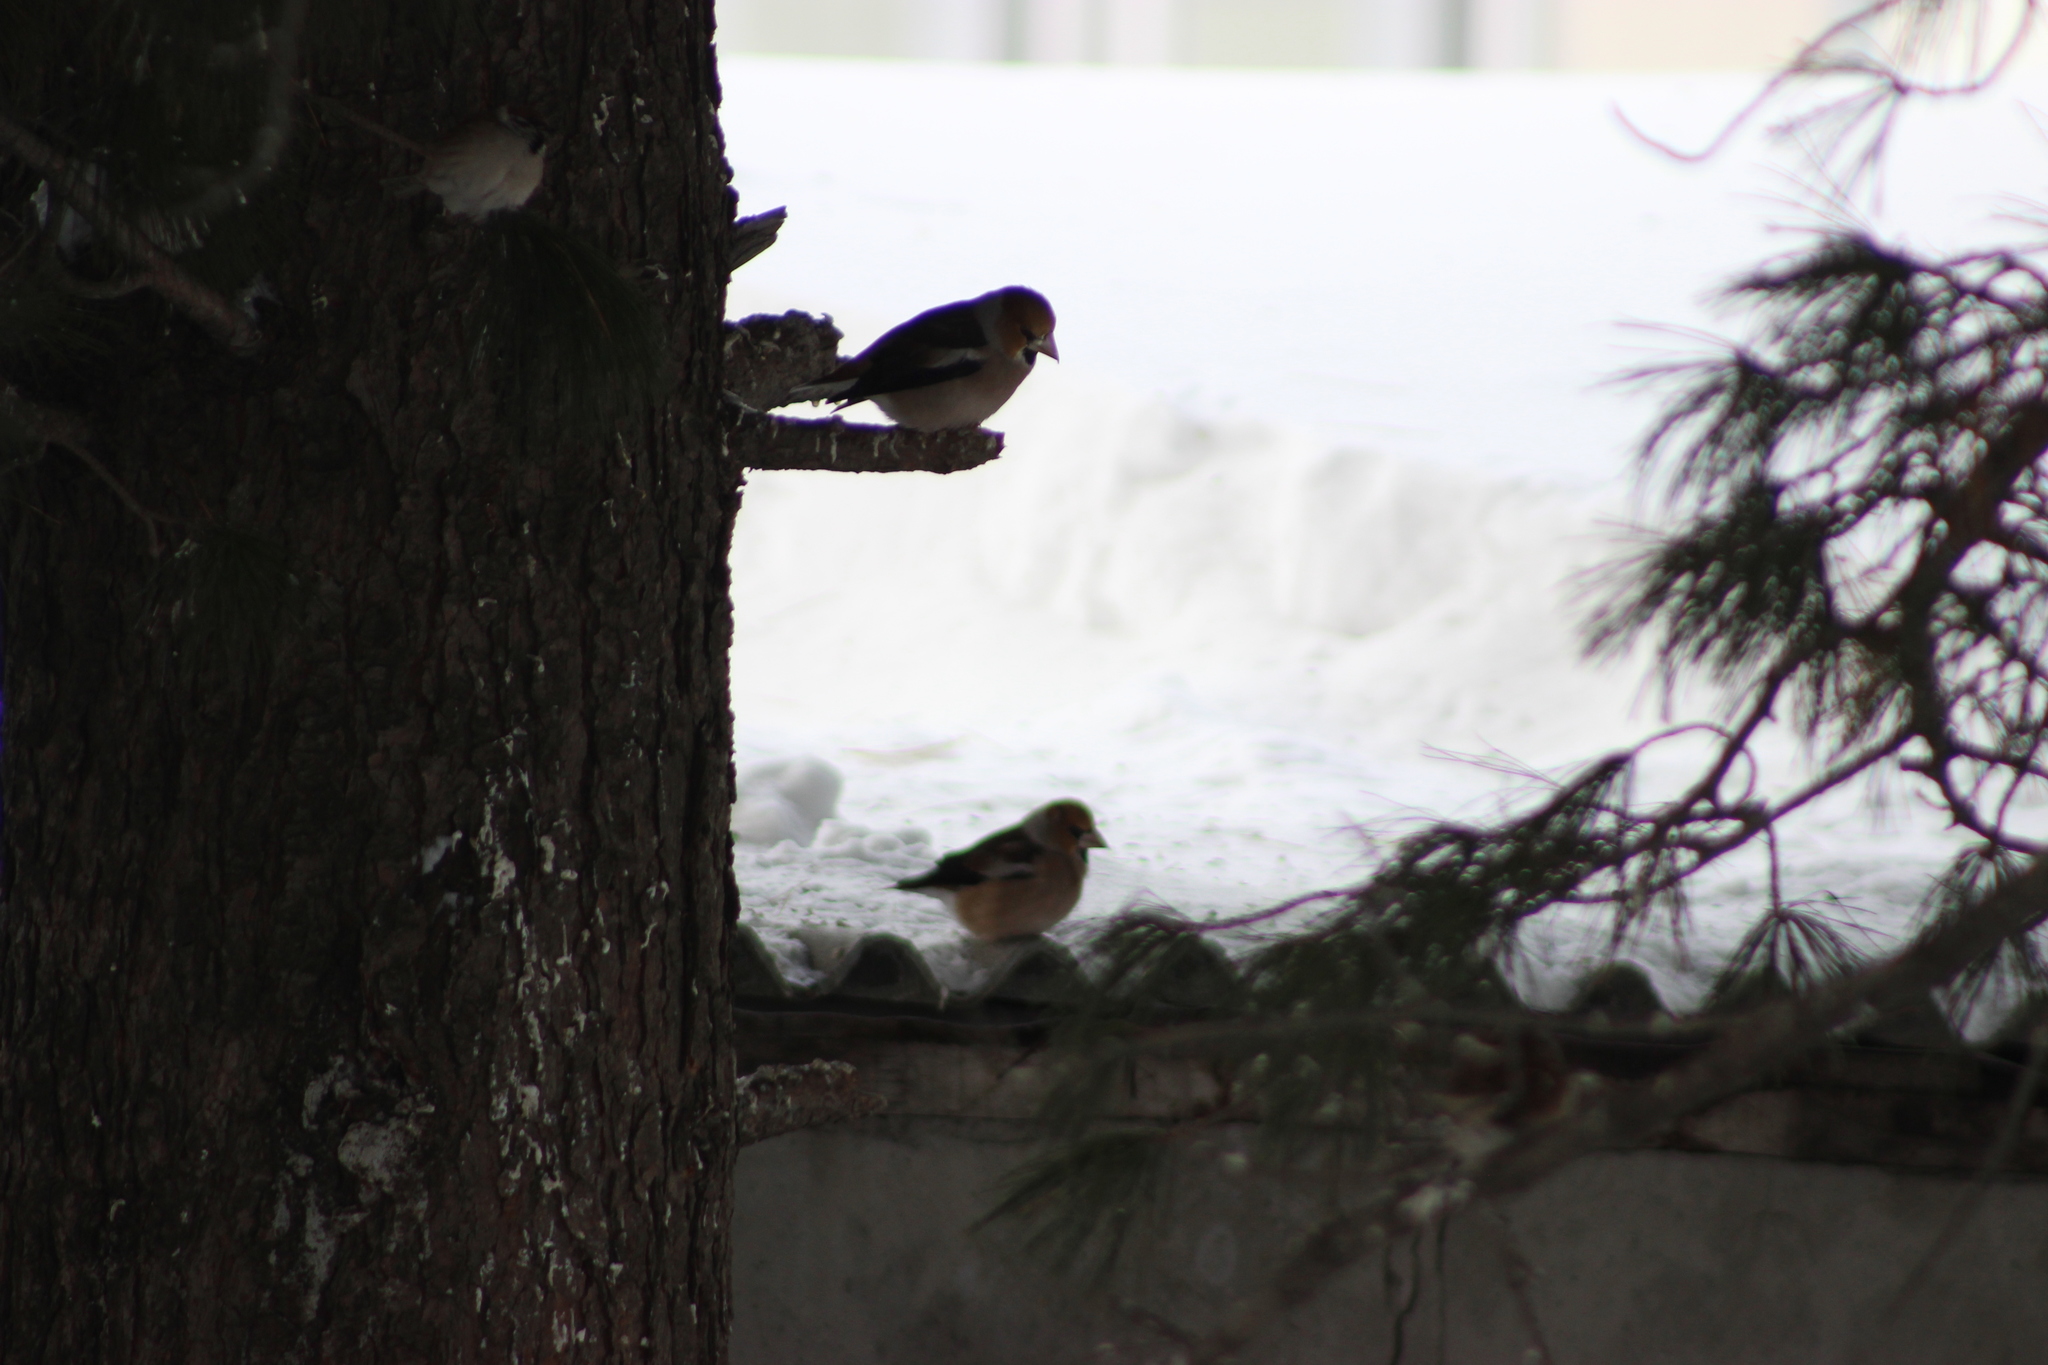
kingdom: Animalia
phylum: Chordata
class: Aves
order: Passeriformes
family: Fringillidae
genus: Coccothraustes
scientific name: Coccothraustes coccothraustes
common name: Hawfinch
